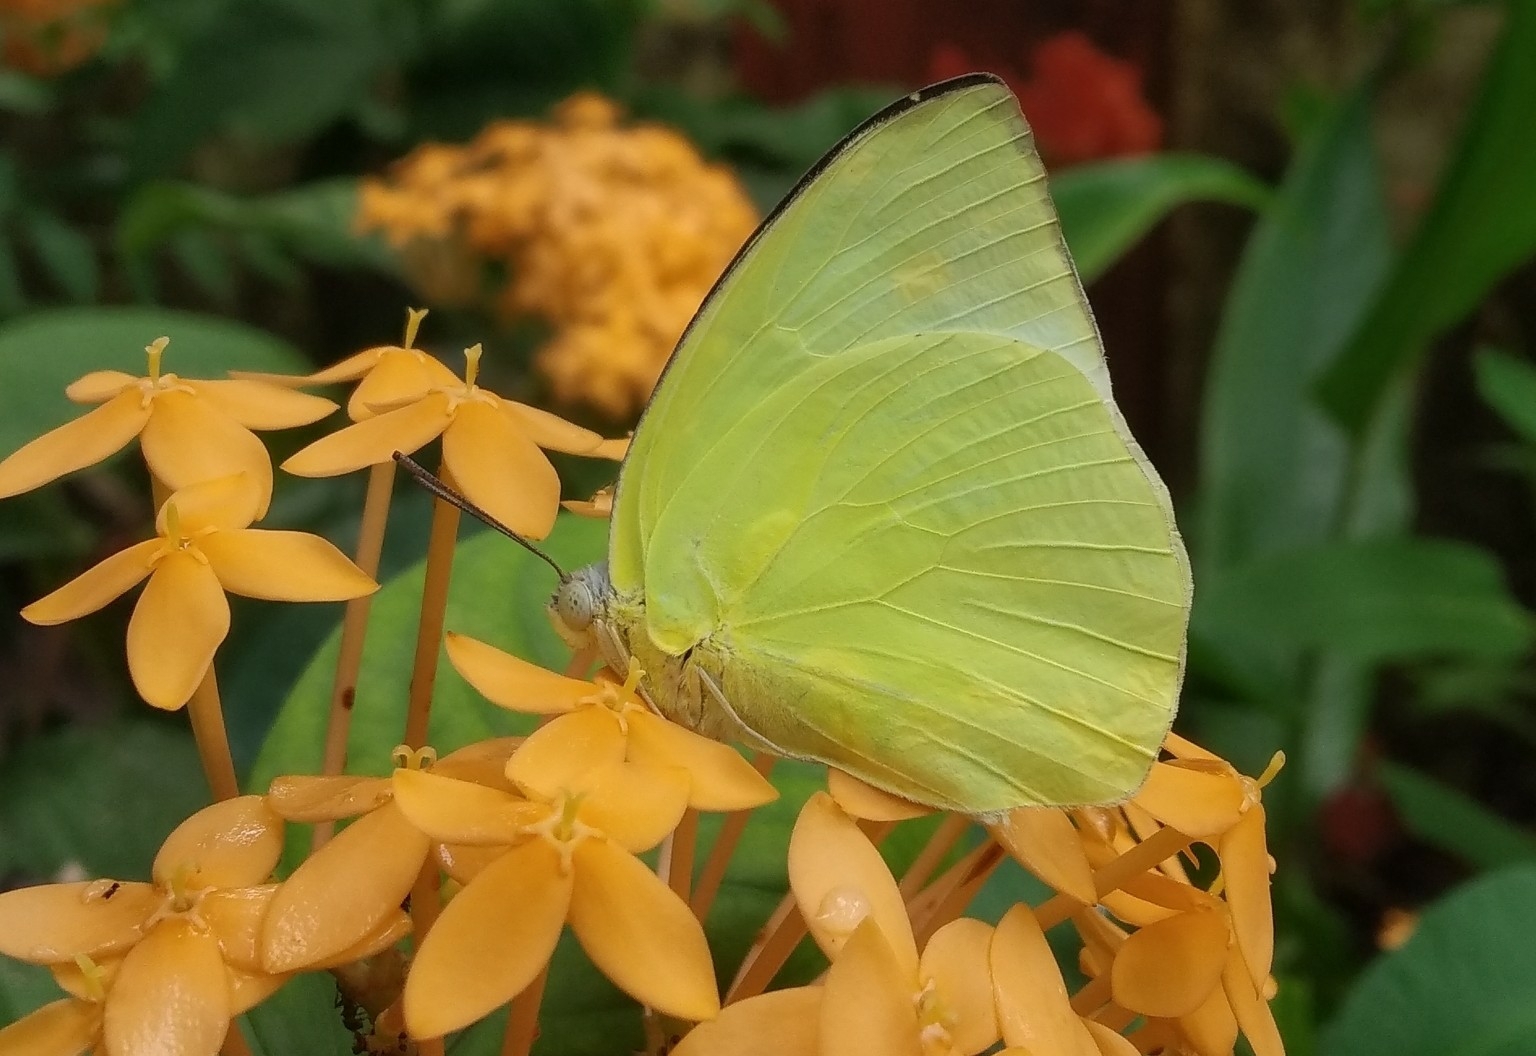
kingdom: Animalia
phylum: Arthropoda
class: Insecta
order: Lepidoptera
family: Pieridae
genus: Catopsilia
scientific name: Catopsilia pomona
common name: Common emigrant
